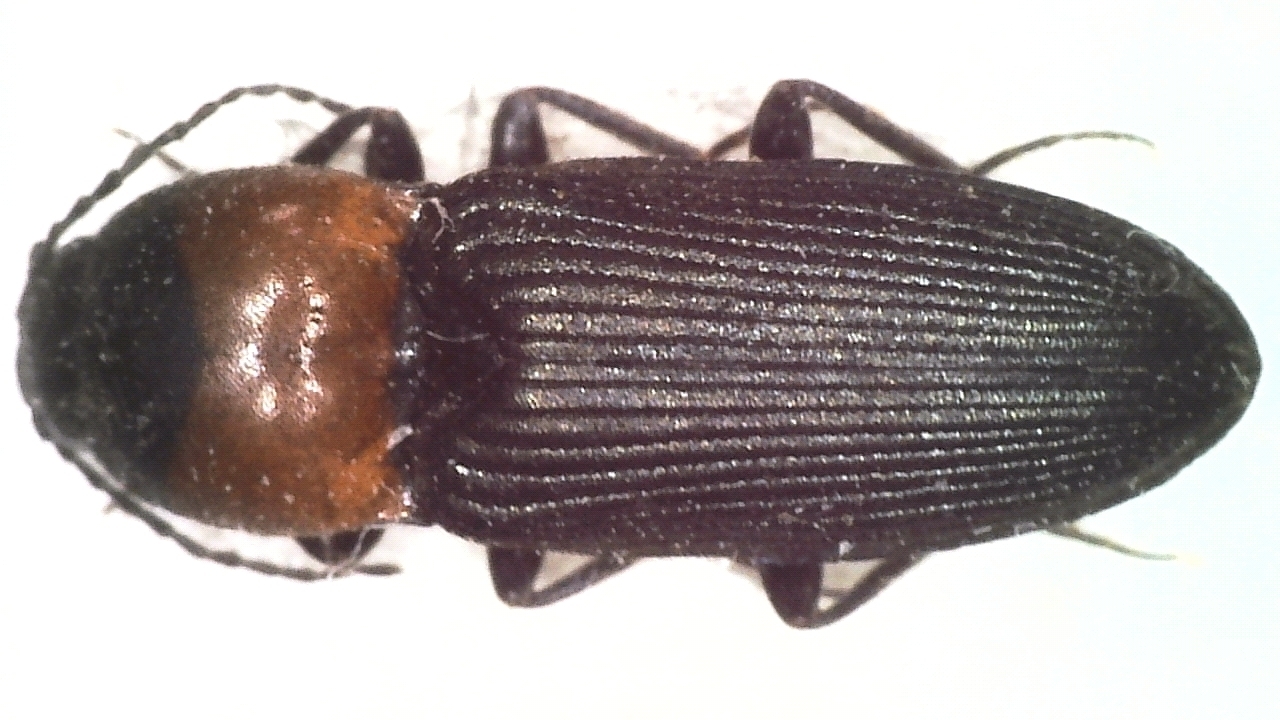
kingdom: Animalia
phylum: Arthropoda
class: Insecta
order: Coleoptera
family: Elateridae
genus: Cardiophorus
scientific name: Cardiophorus ruficollis
